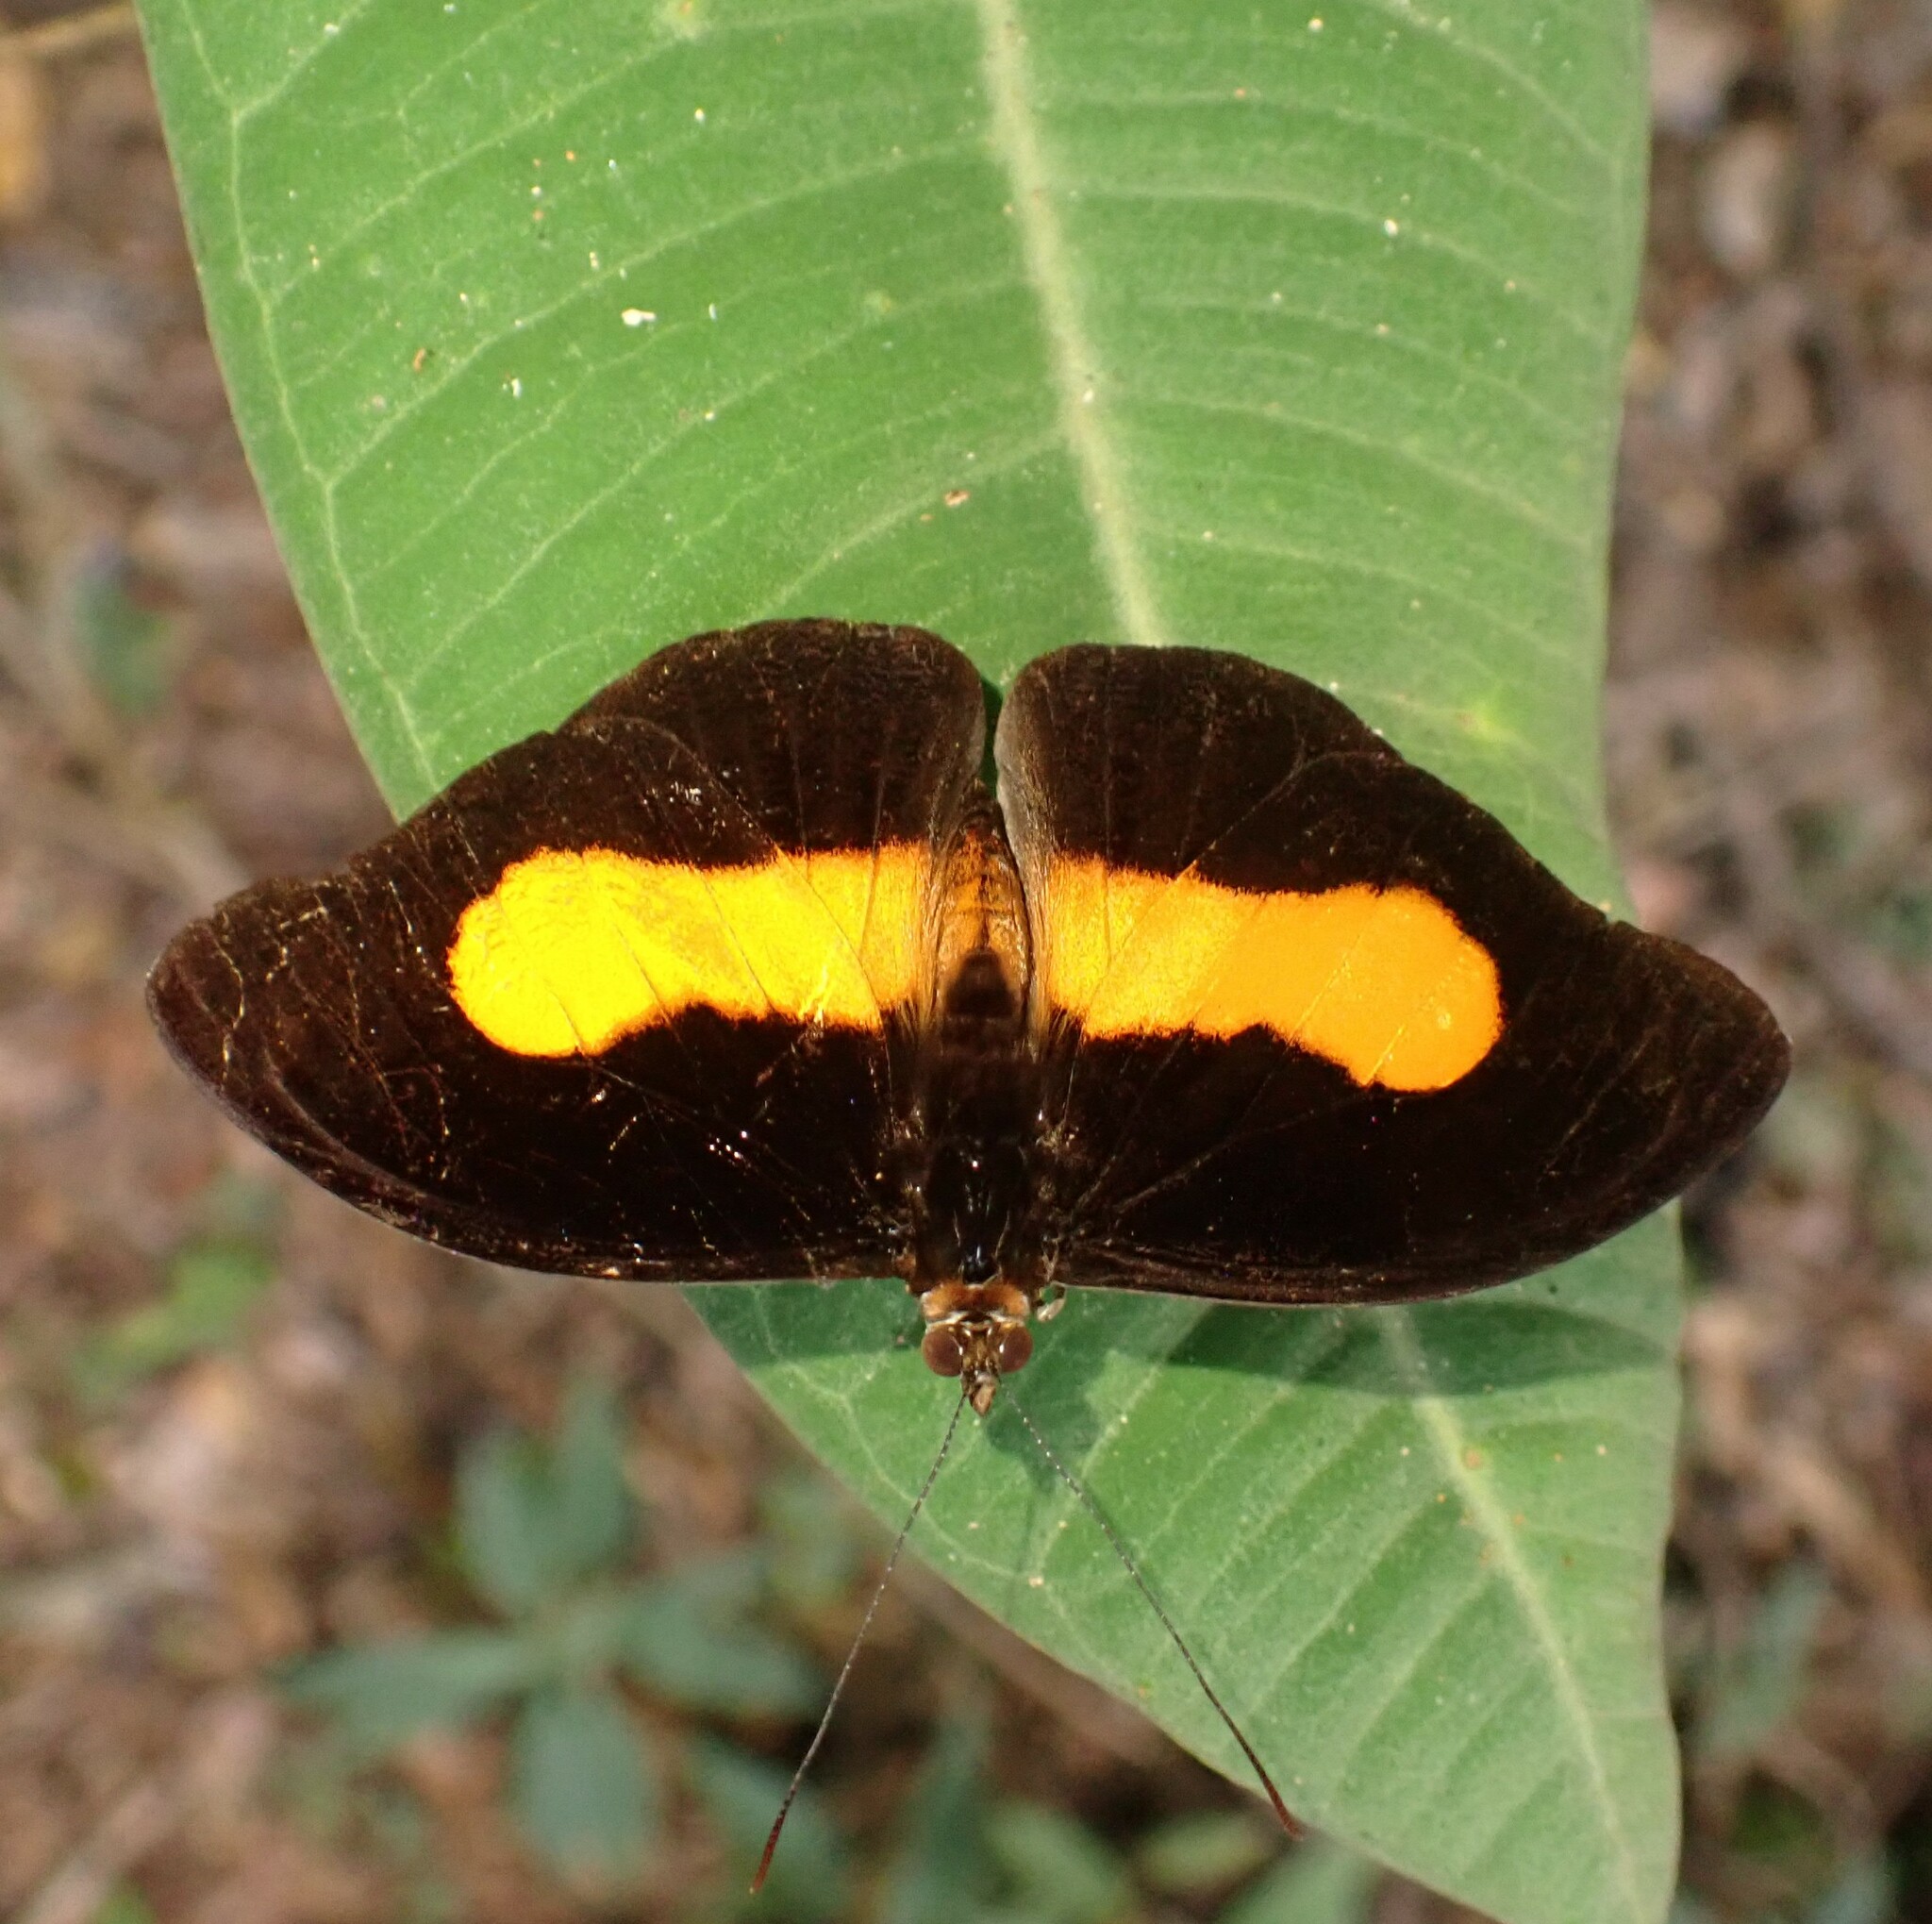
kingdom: Animalia
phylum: Arthropoda
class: Insecta
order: Lepidoptera
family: Nymphalidae
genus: Catonephele
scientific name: Catonephele acontius
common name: Unspotted firewing
